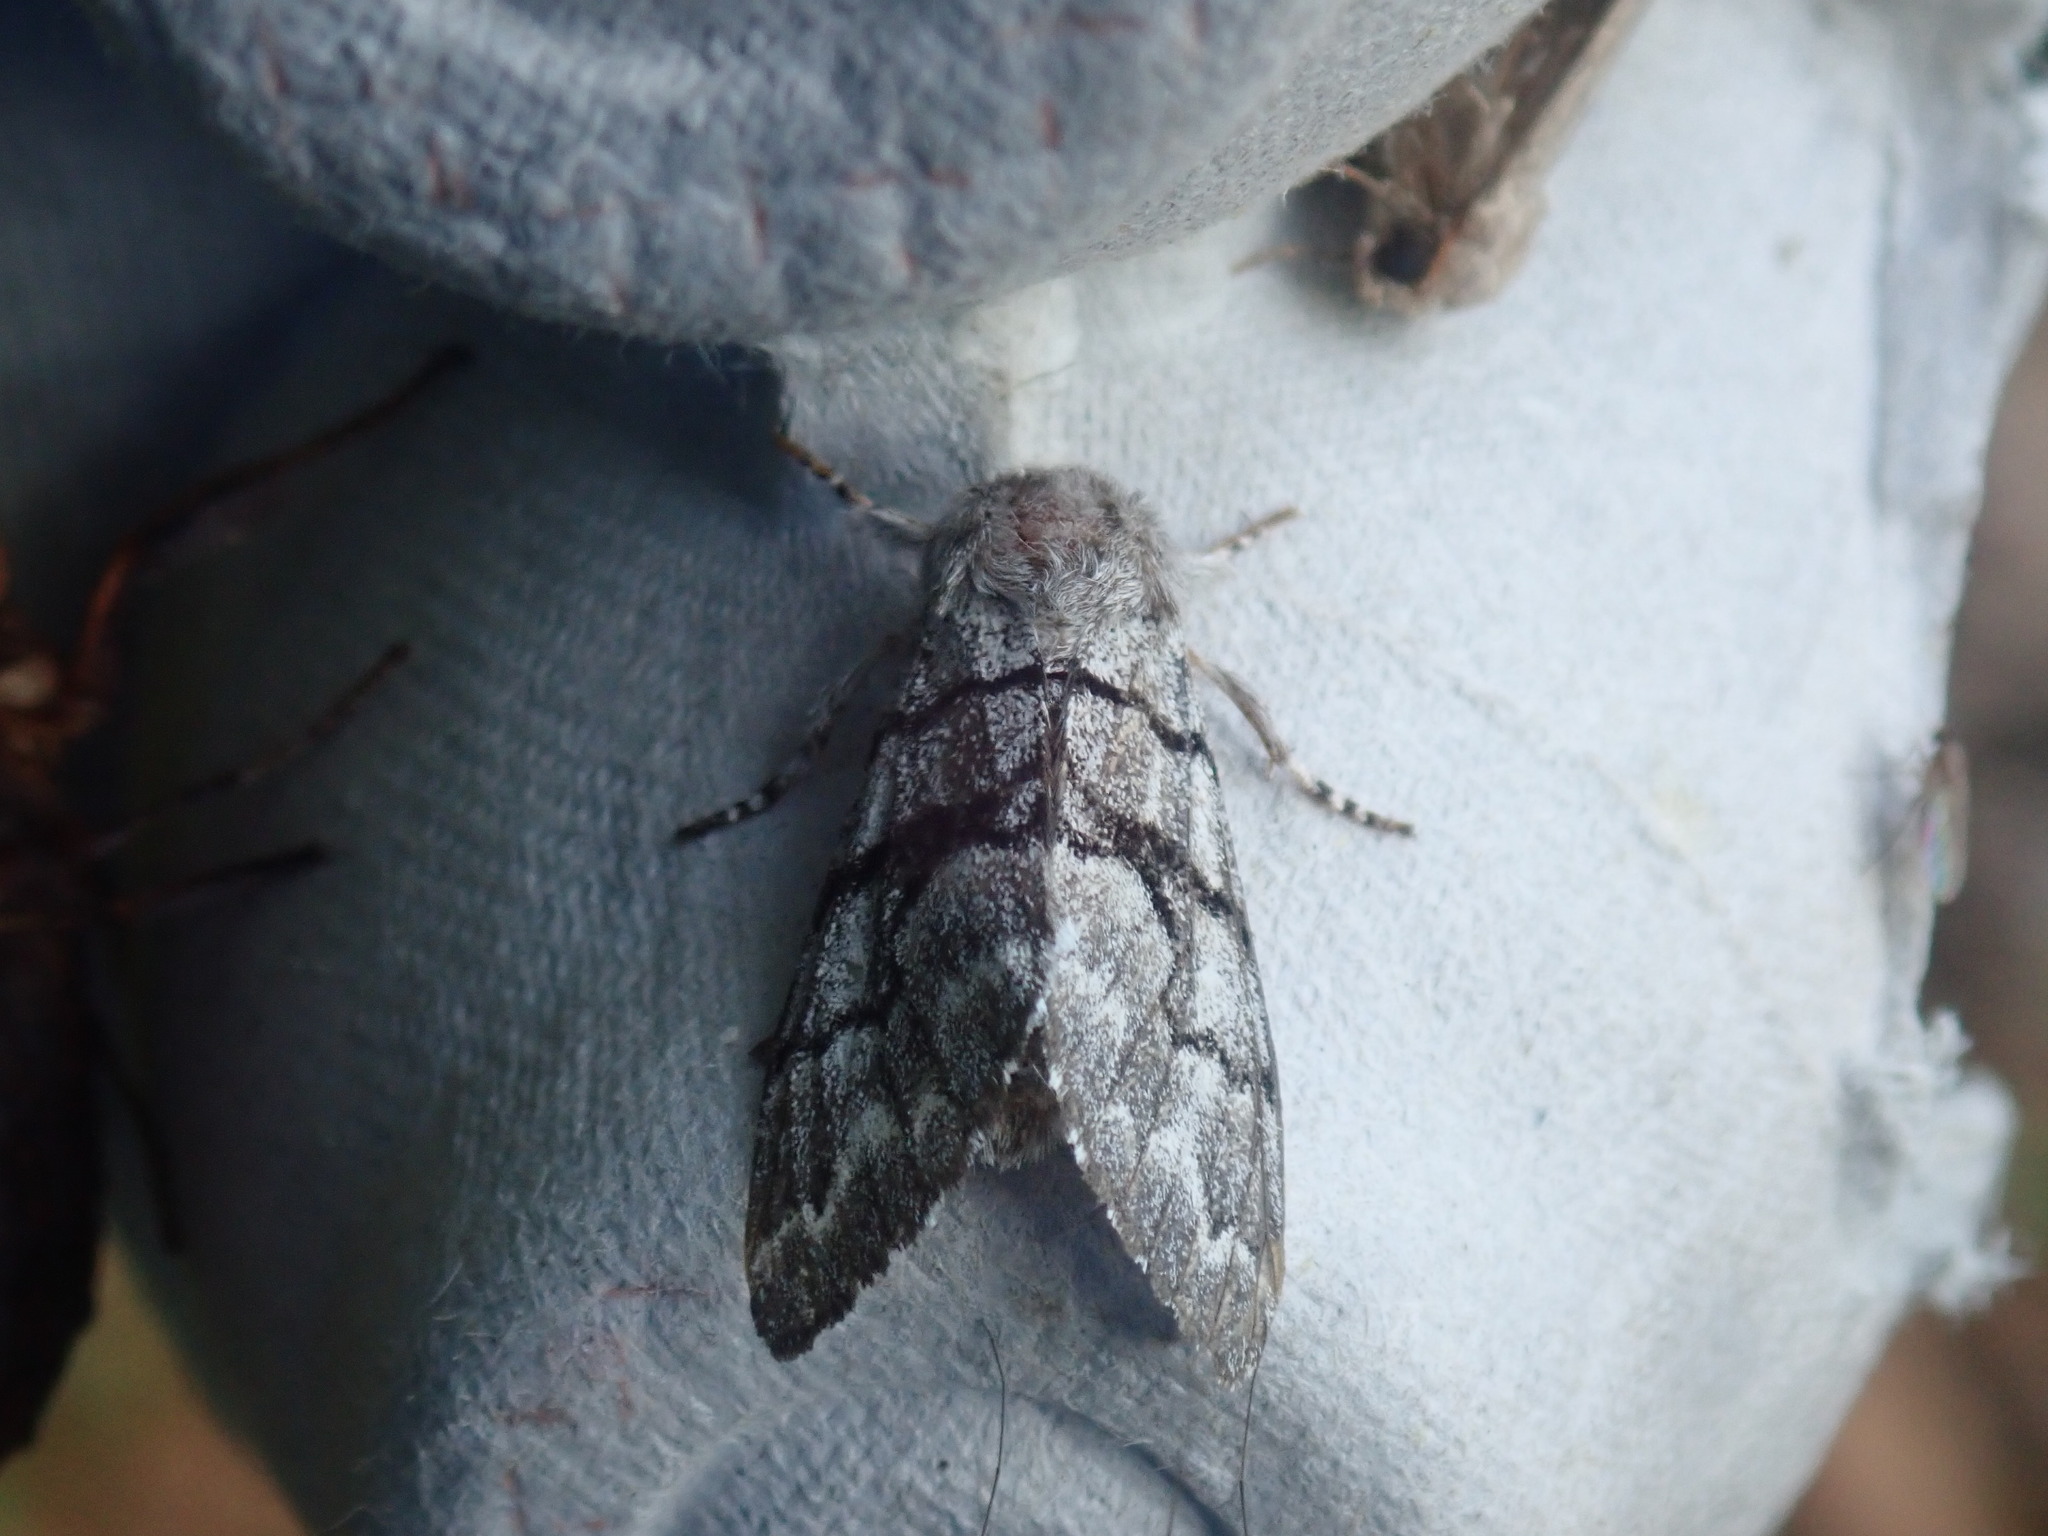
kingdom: Animalia
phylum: Arthropoda
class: Insecta
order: Lepidoptera
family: Noctuidae
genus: Panthea
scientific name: Panthea furcilla
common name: Eastern panthea moth
